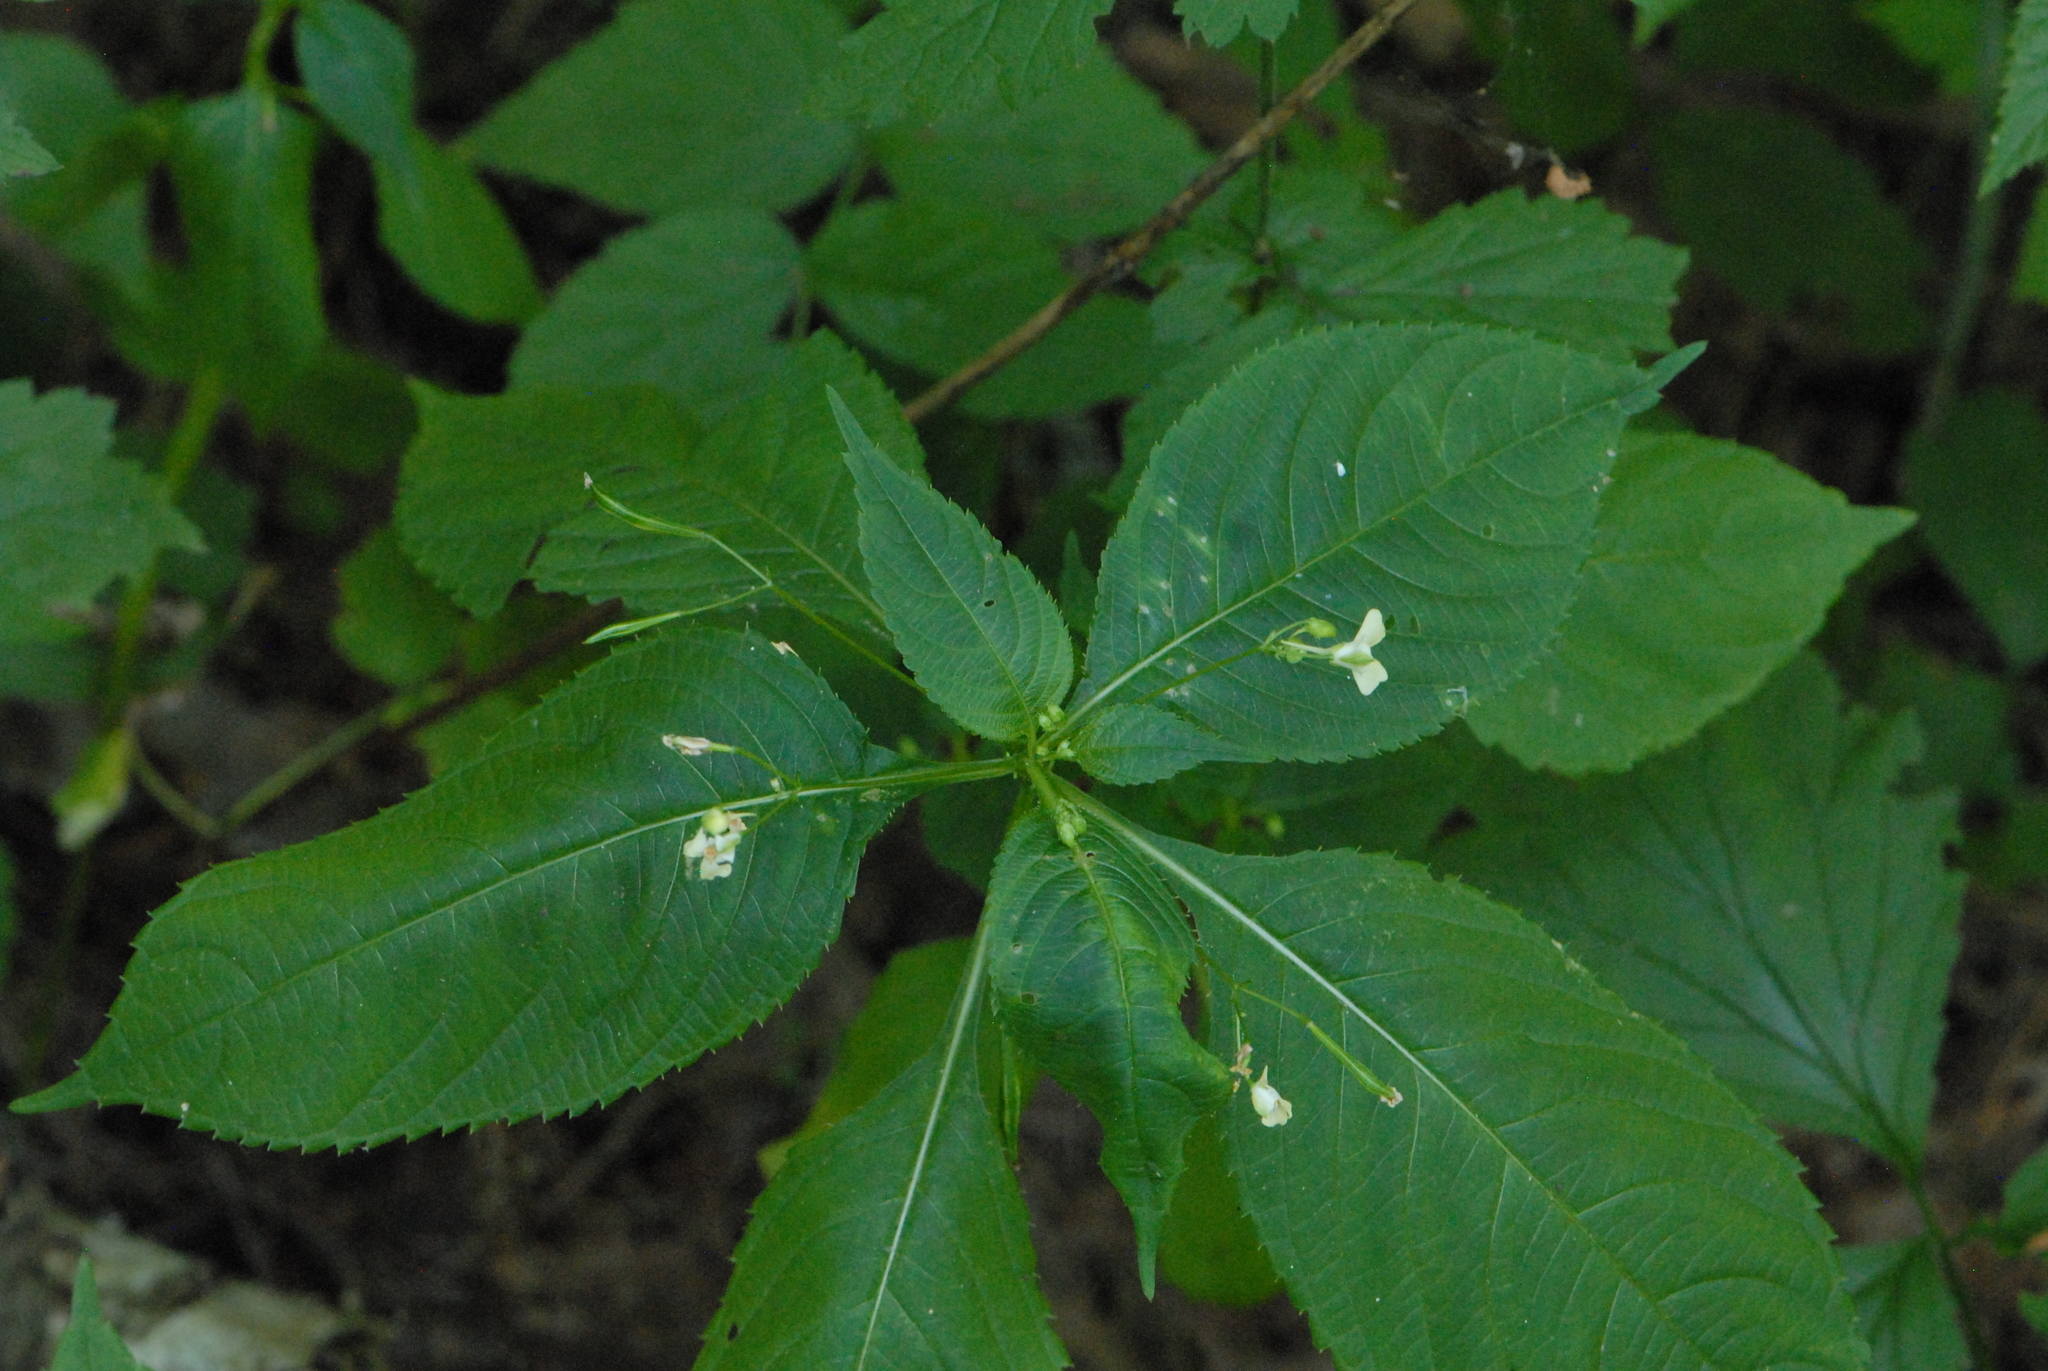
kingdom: Plantae
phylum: Tracheophyta
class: Magnoliopsida
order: Ericales
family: Balsaminaceae
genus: Impatiens
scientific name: Impatiens parviflora
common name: Small balsam
